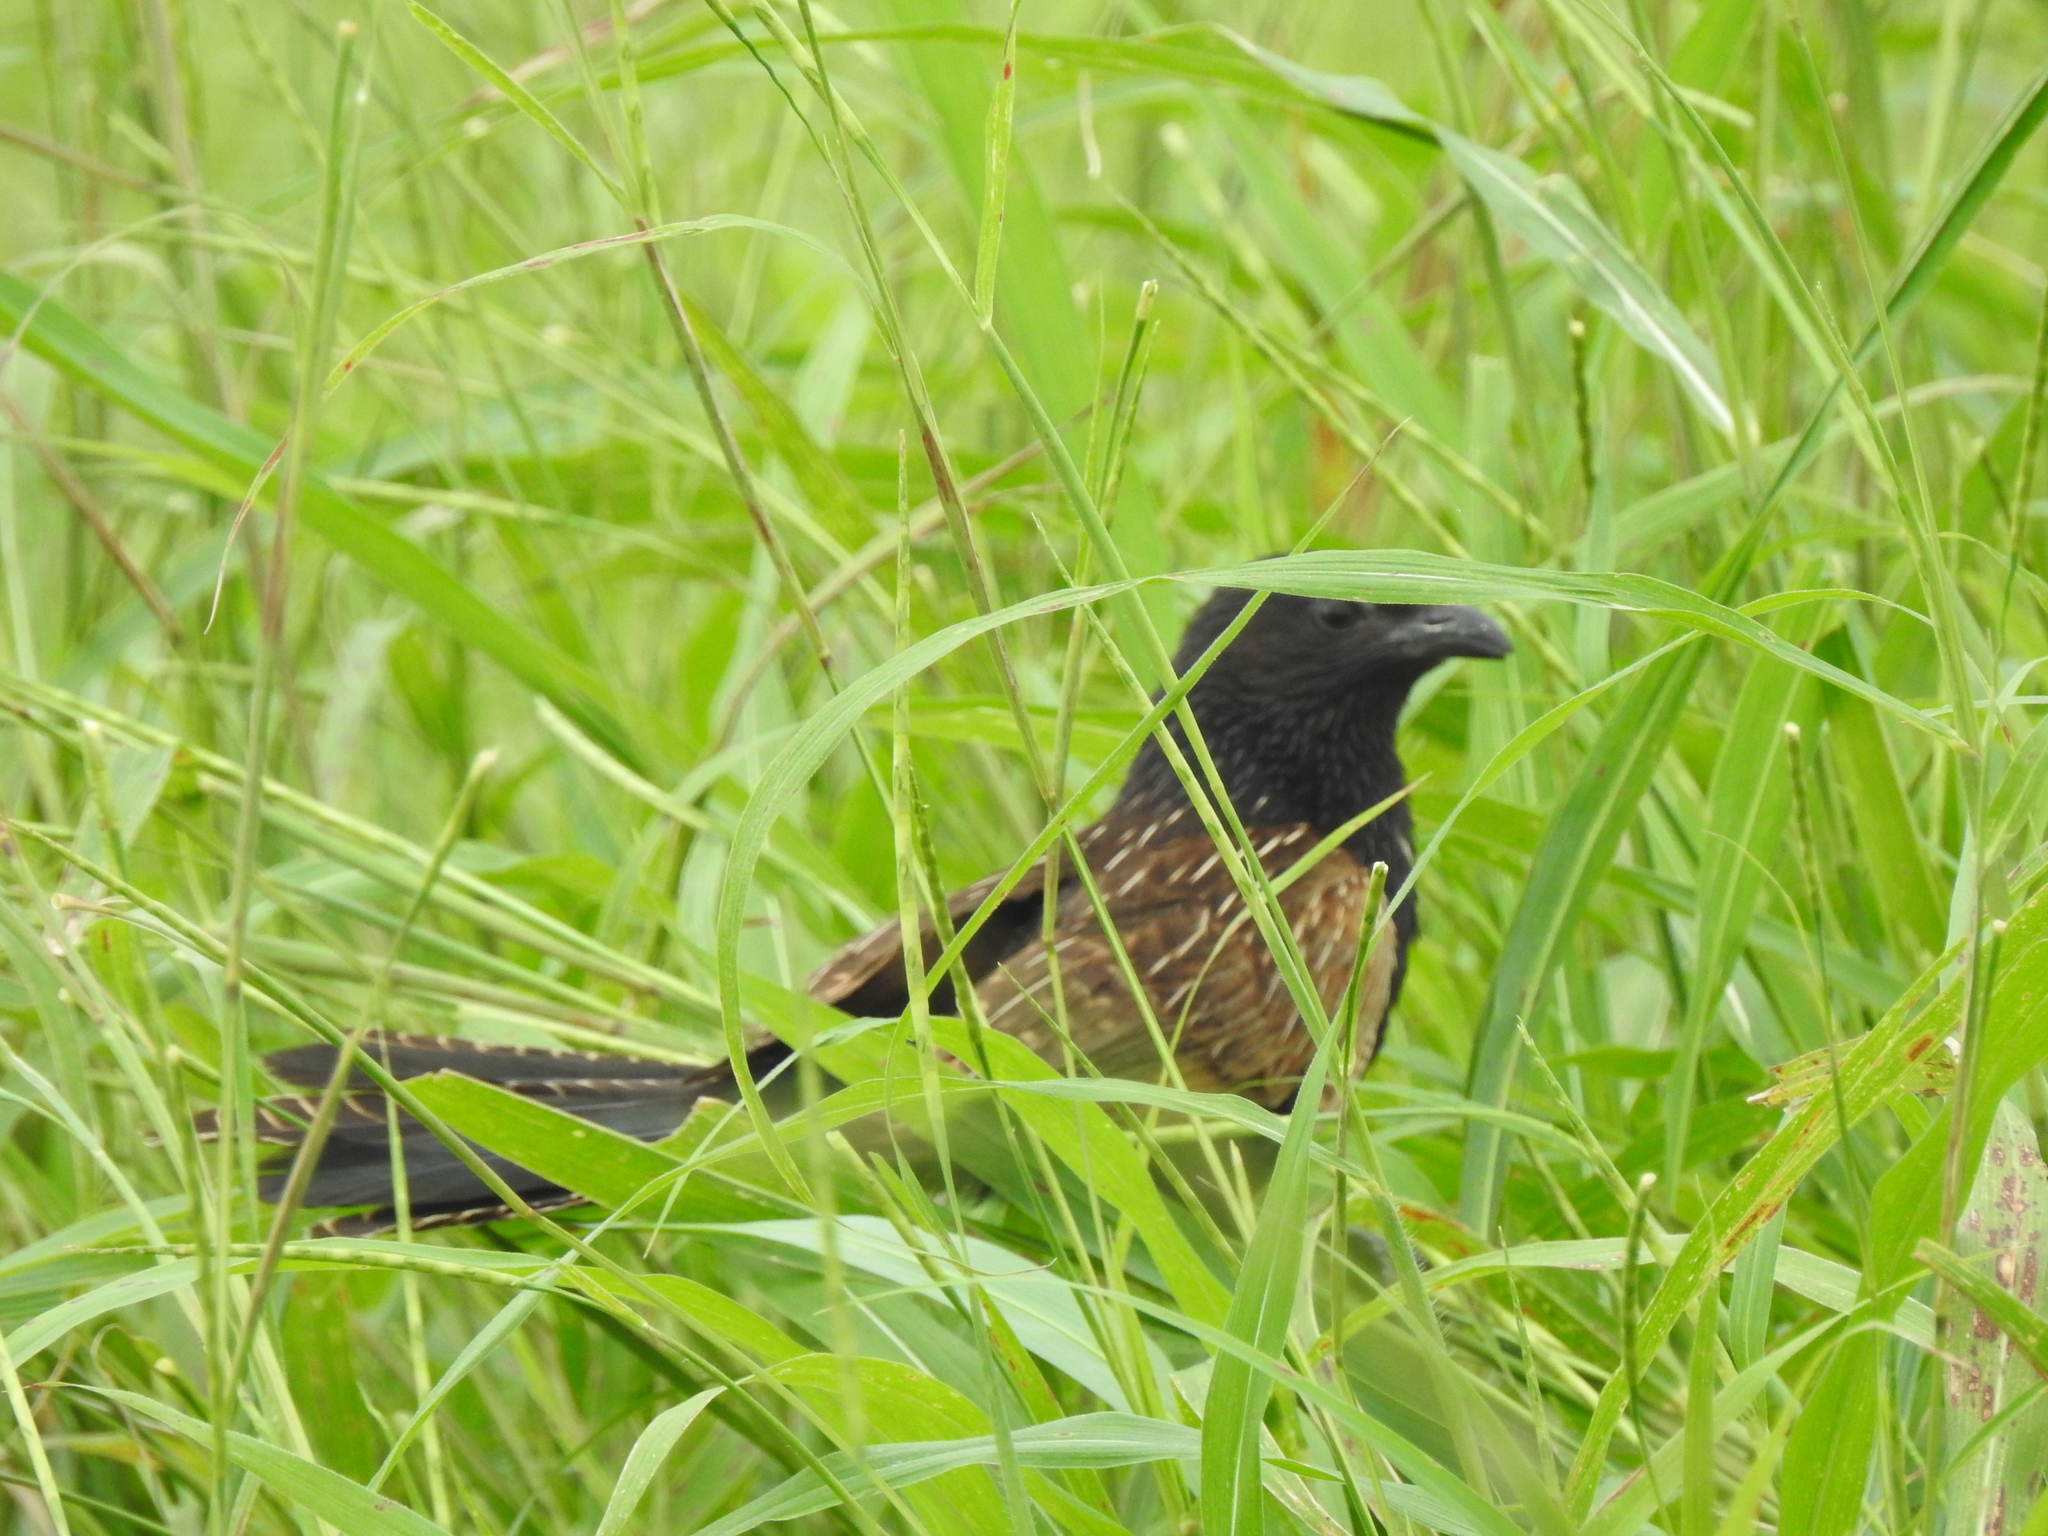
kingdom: Animalia
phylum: Chordata
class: Aves
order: Cuculiformes
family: Cuculidae
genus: Centropus
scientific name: Centropus bengalensis
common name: Lesser coucal
